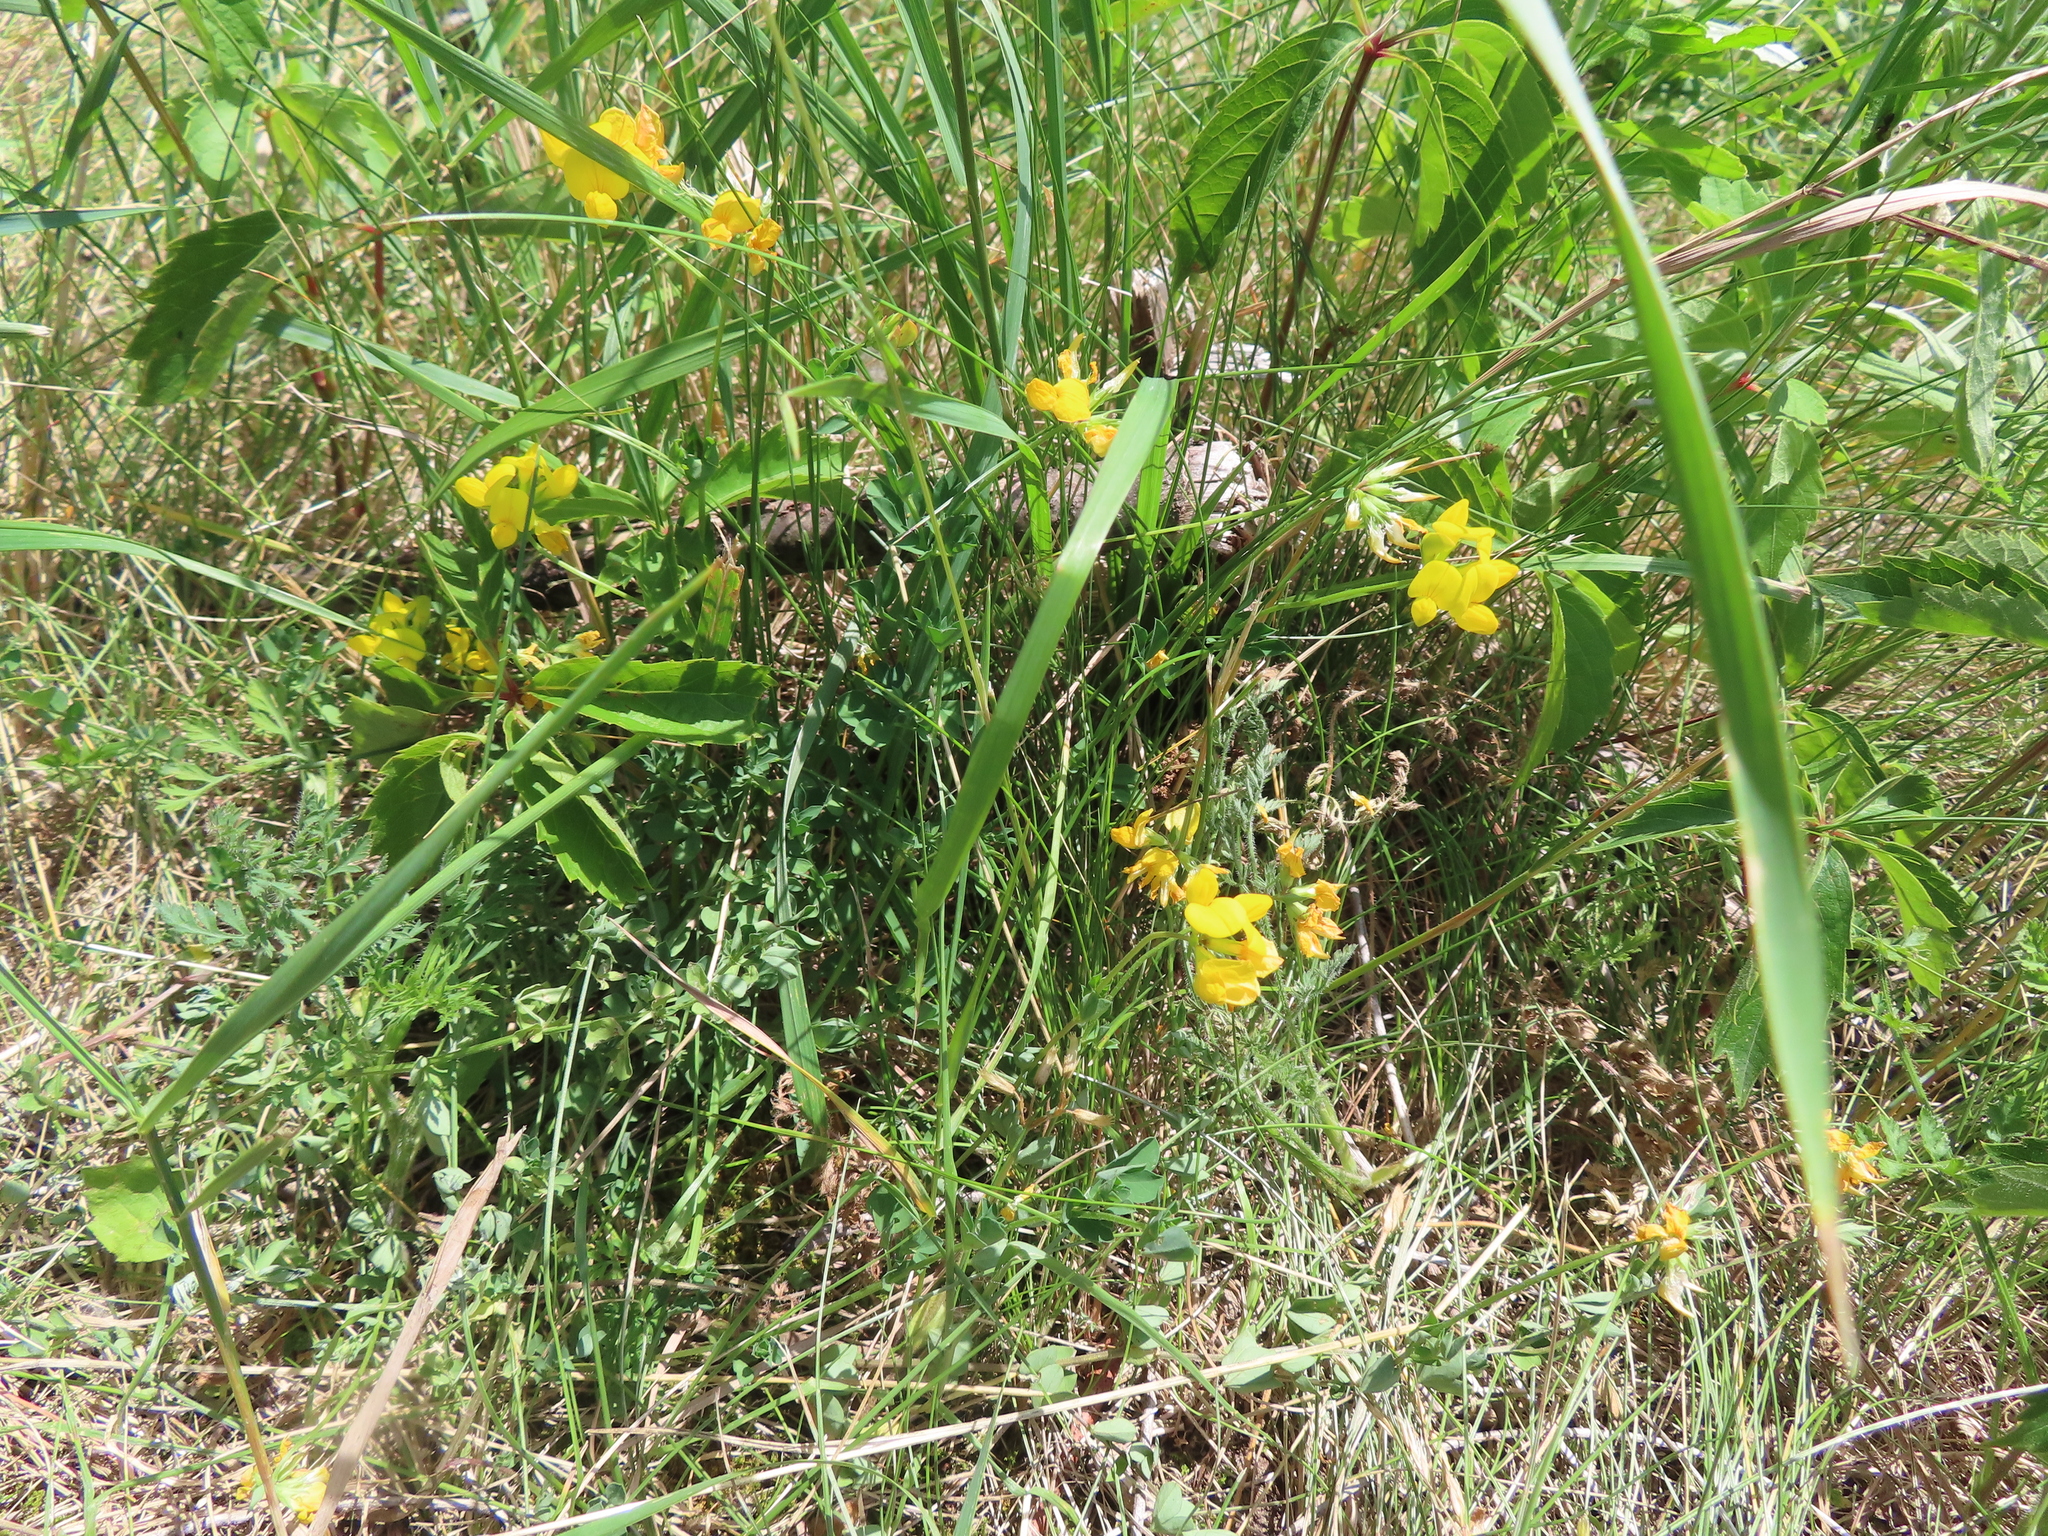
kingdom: Plantae
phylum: Tracheophyta
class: Magnoliopsida
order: Fabales
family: Fabaceae
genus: Lotus
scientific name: Lotus corniculatus
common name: Common bird's-foot-trefoil
